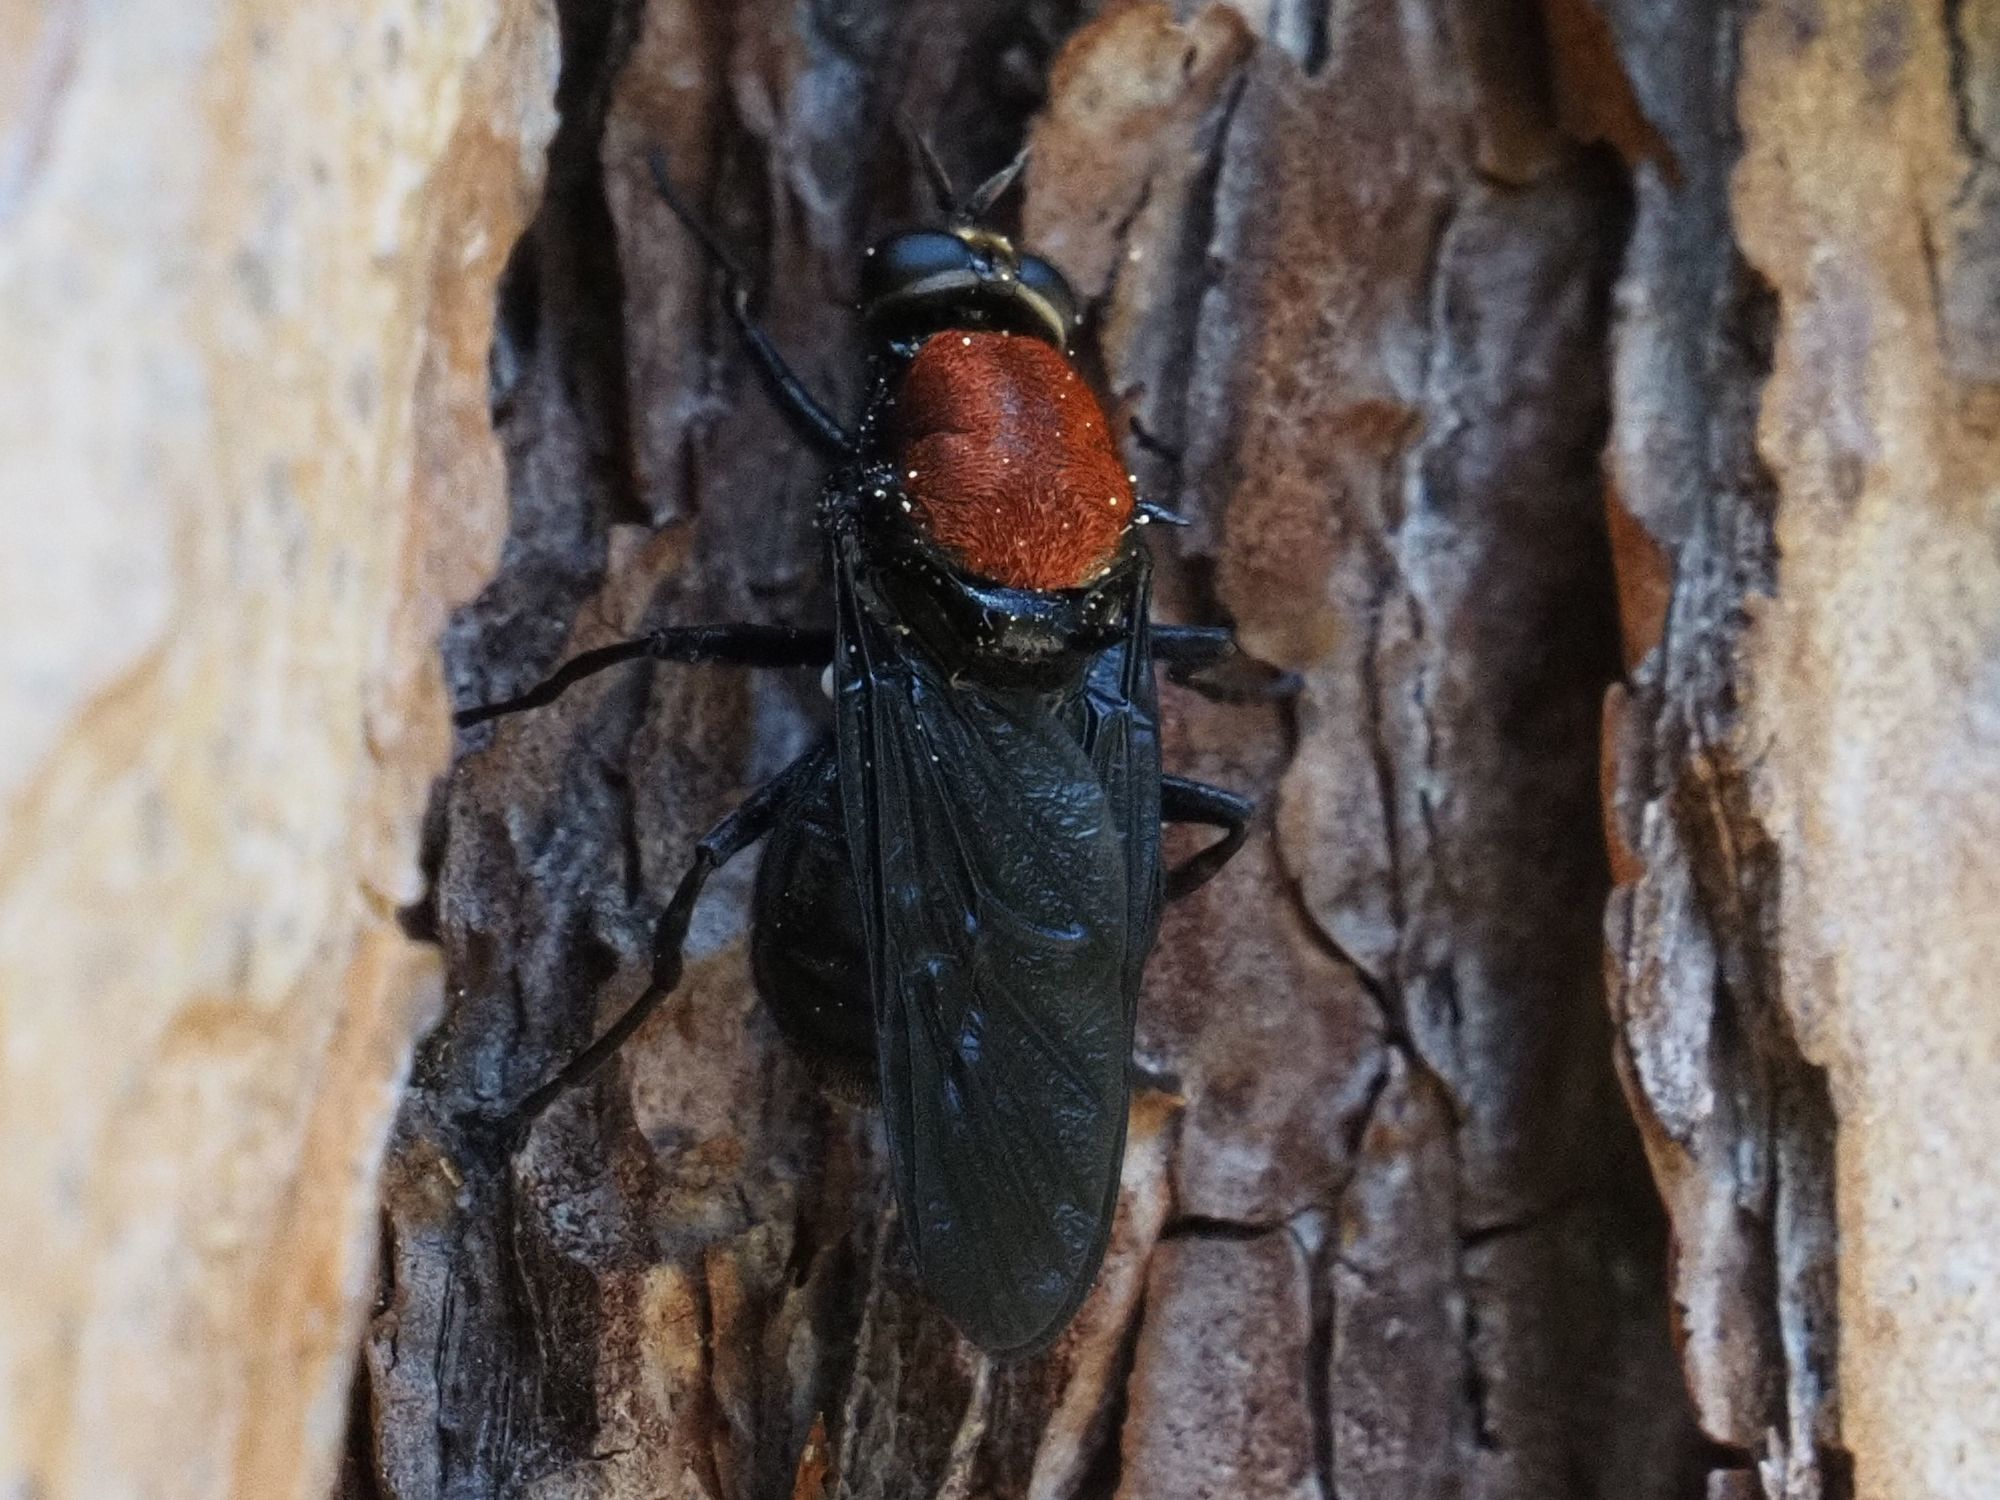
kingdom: Animalia
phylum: Arthropoda
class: Insecta
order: Diptera
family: Stratiomyidae
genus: Clitellaria
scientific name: Clitellaria ephippium
